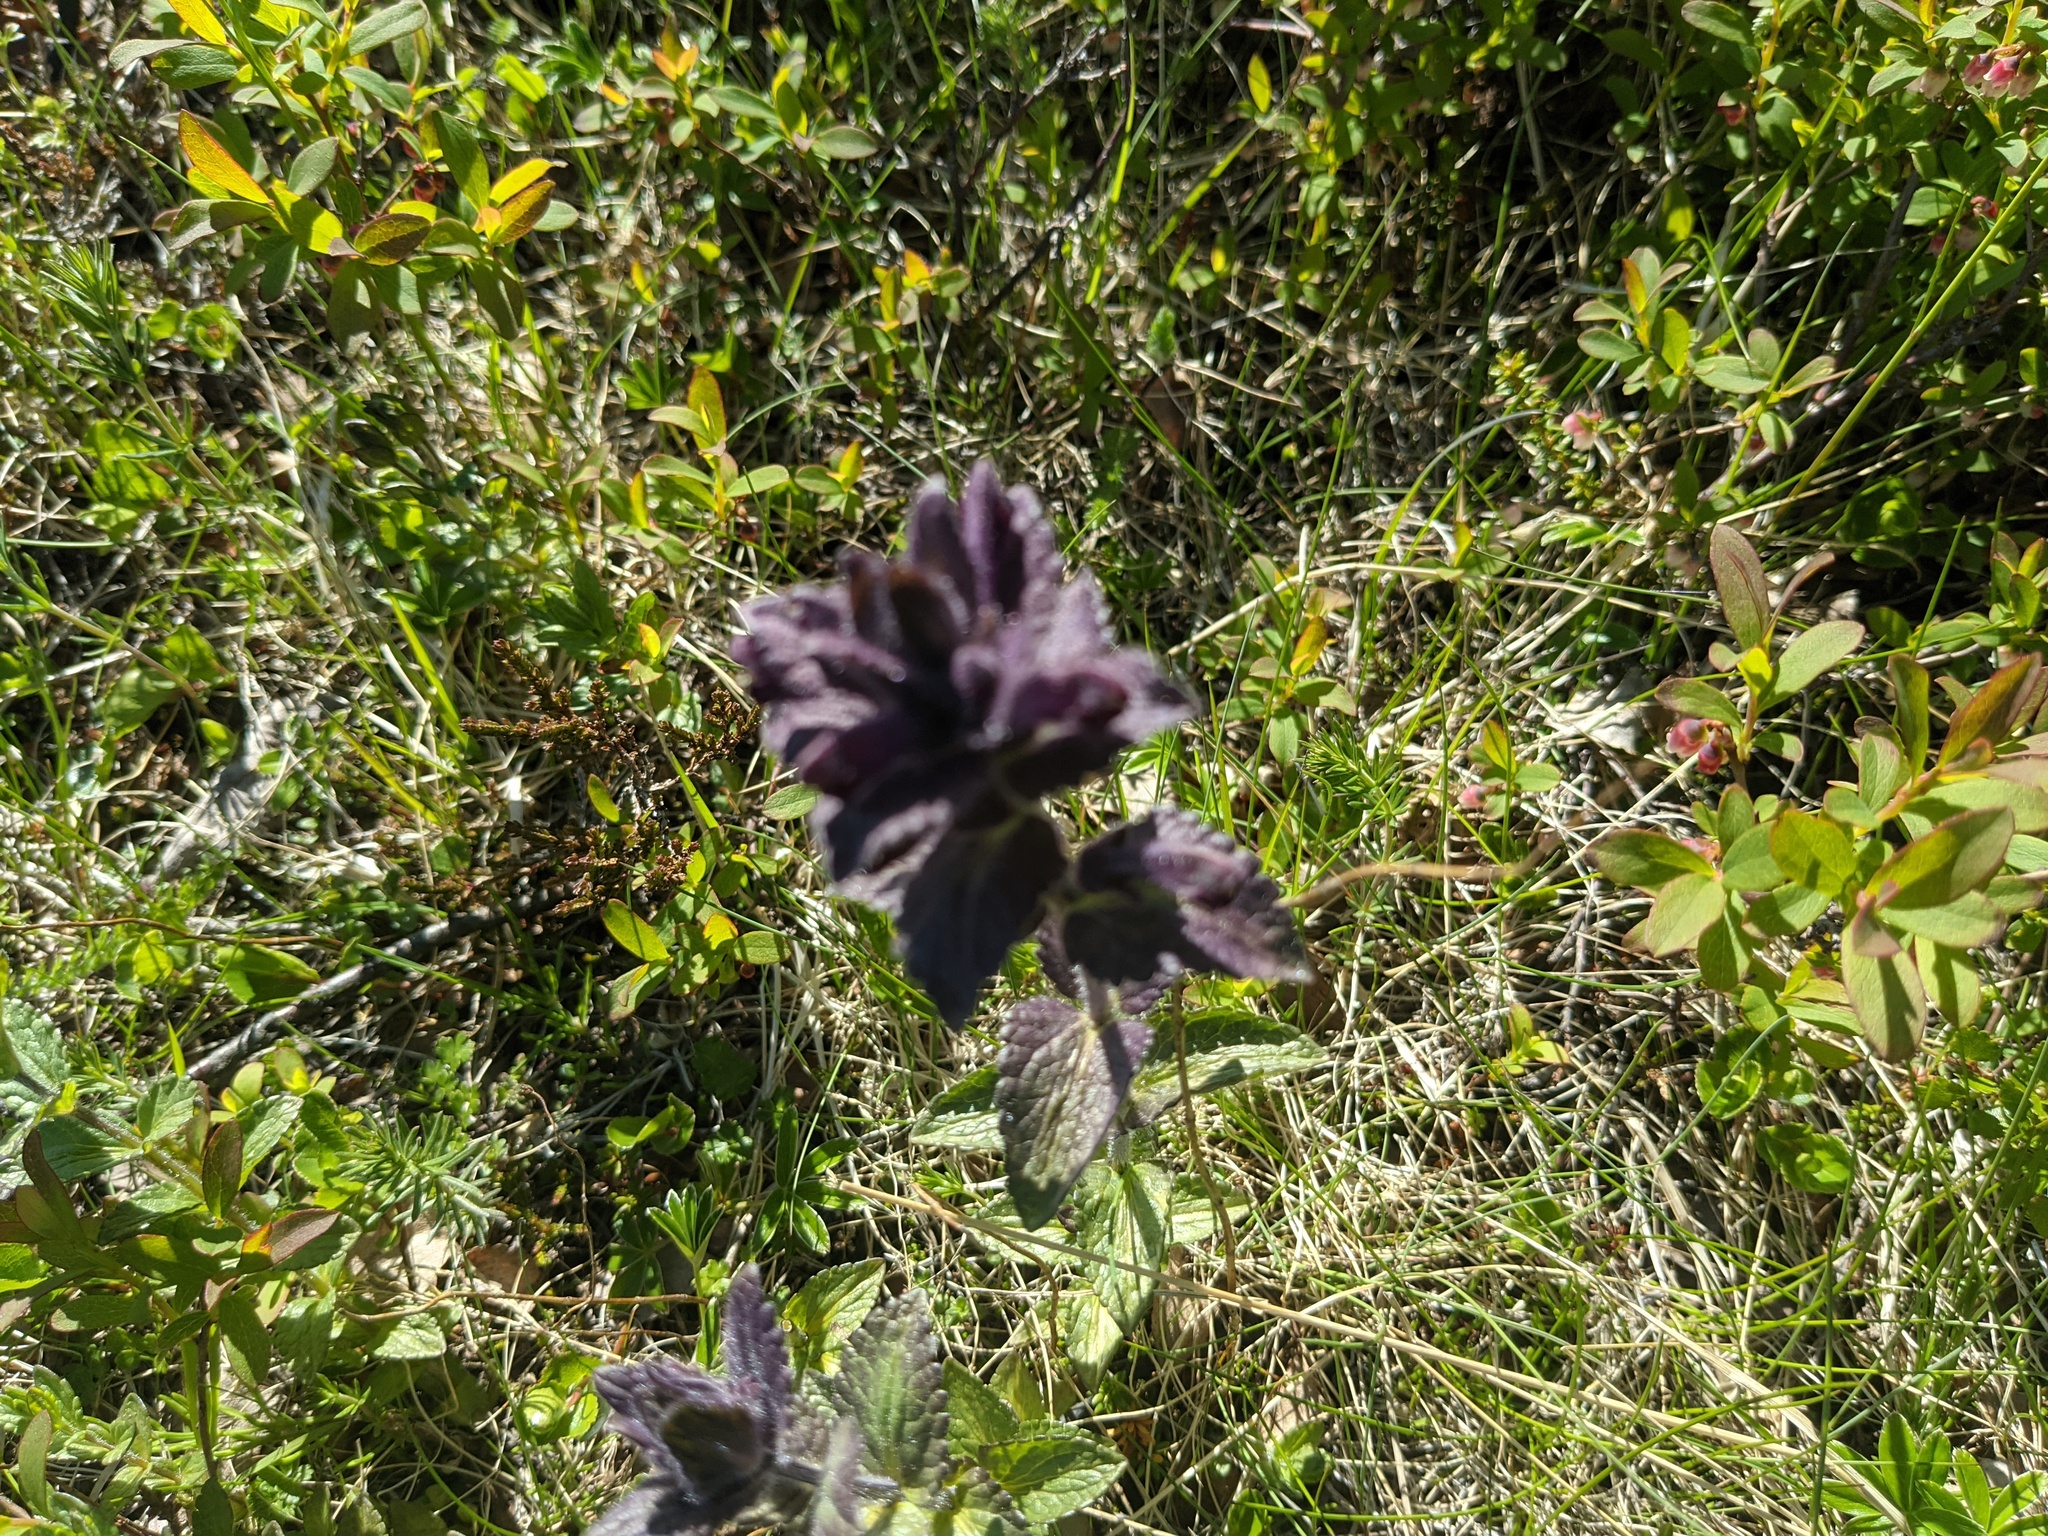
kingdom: Plantae
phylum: Tracheophyta
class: Magnoliopsida
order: Lamiales
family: Orobanchaceae
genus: Bartsia
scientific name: Bartsia alpina
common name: Alpine bartsia
